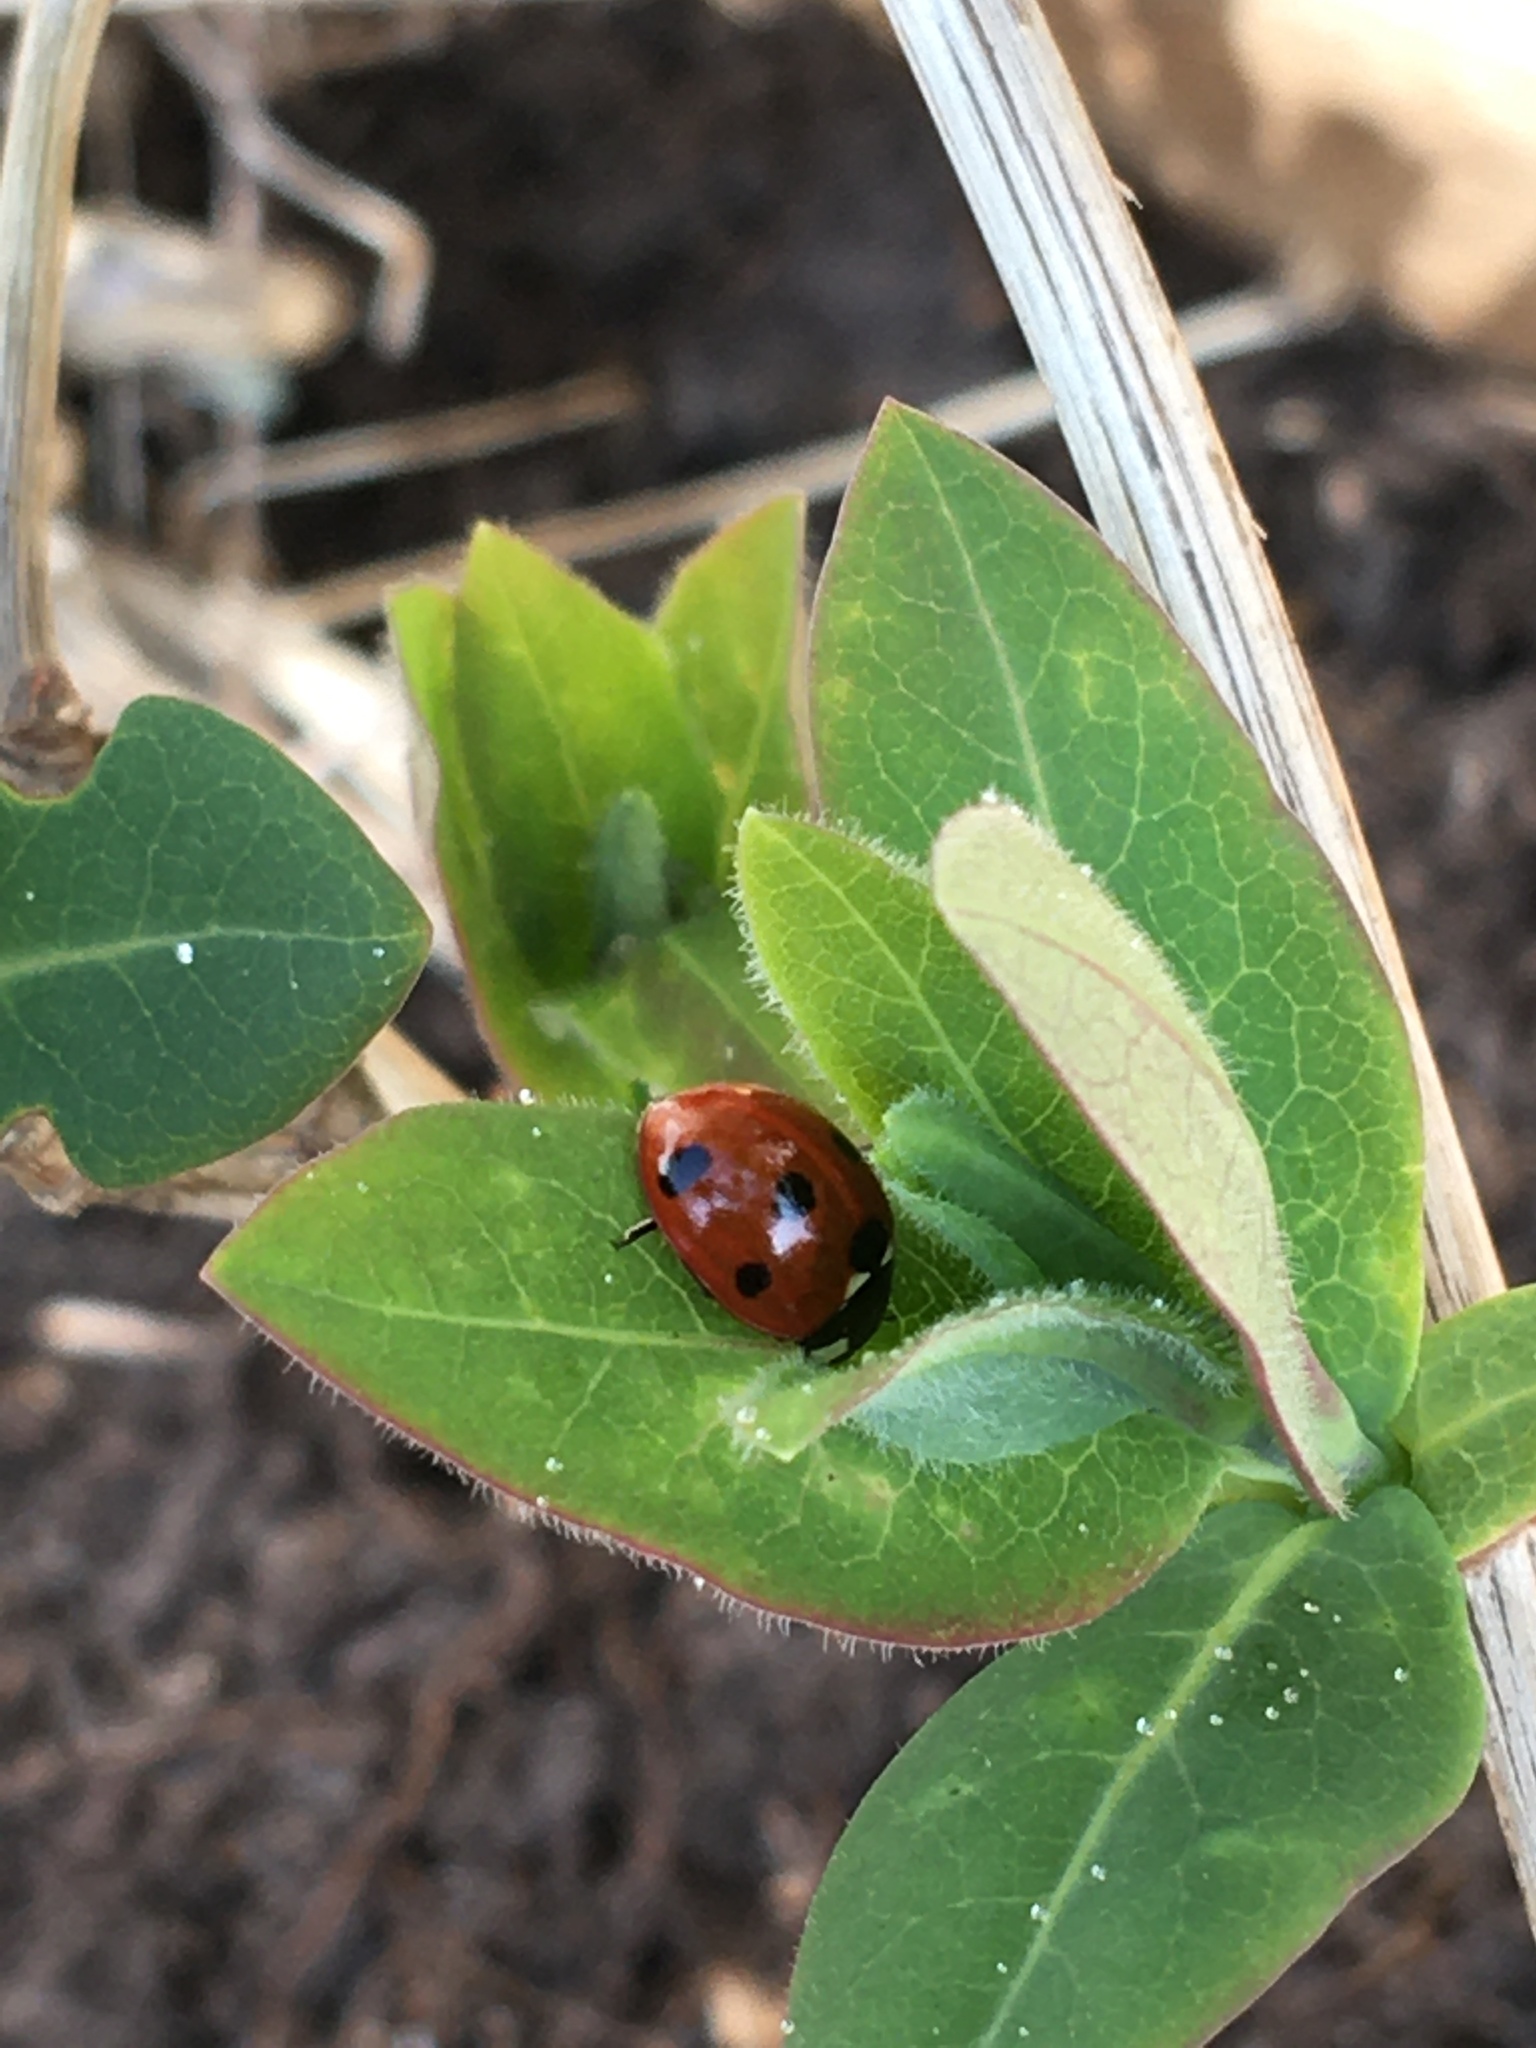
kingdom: Animalia
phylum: Arthropoda
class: Insecta
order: Coleoptera
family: Coccinellidae
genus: Coccinella
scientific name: Coccinella septempunctata
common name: Sevenspotted lady beetle
